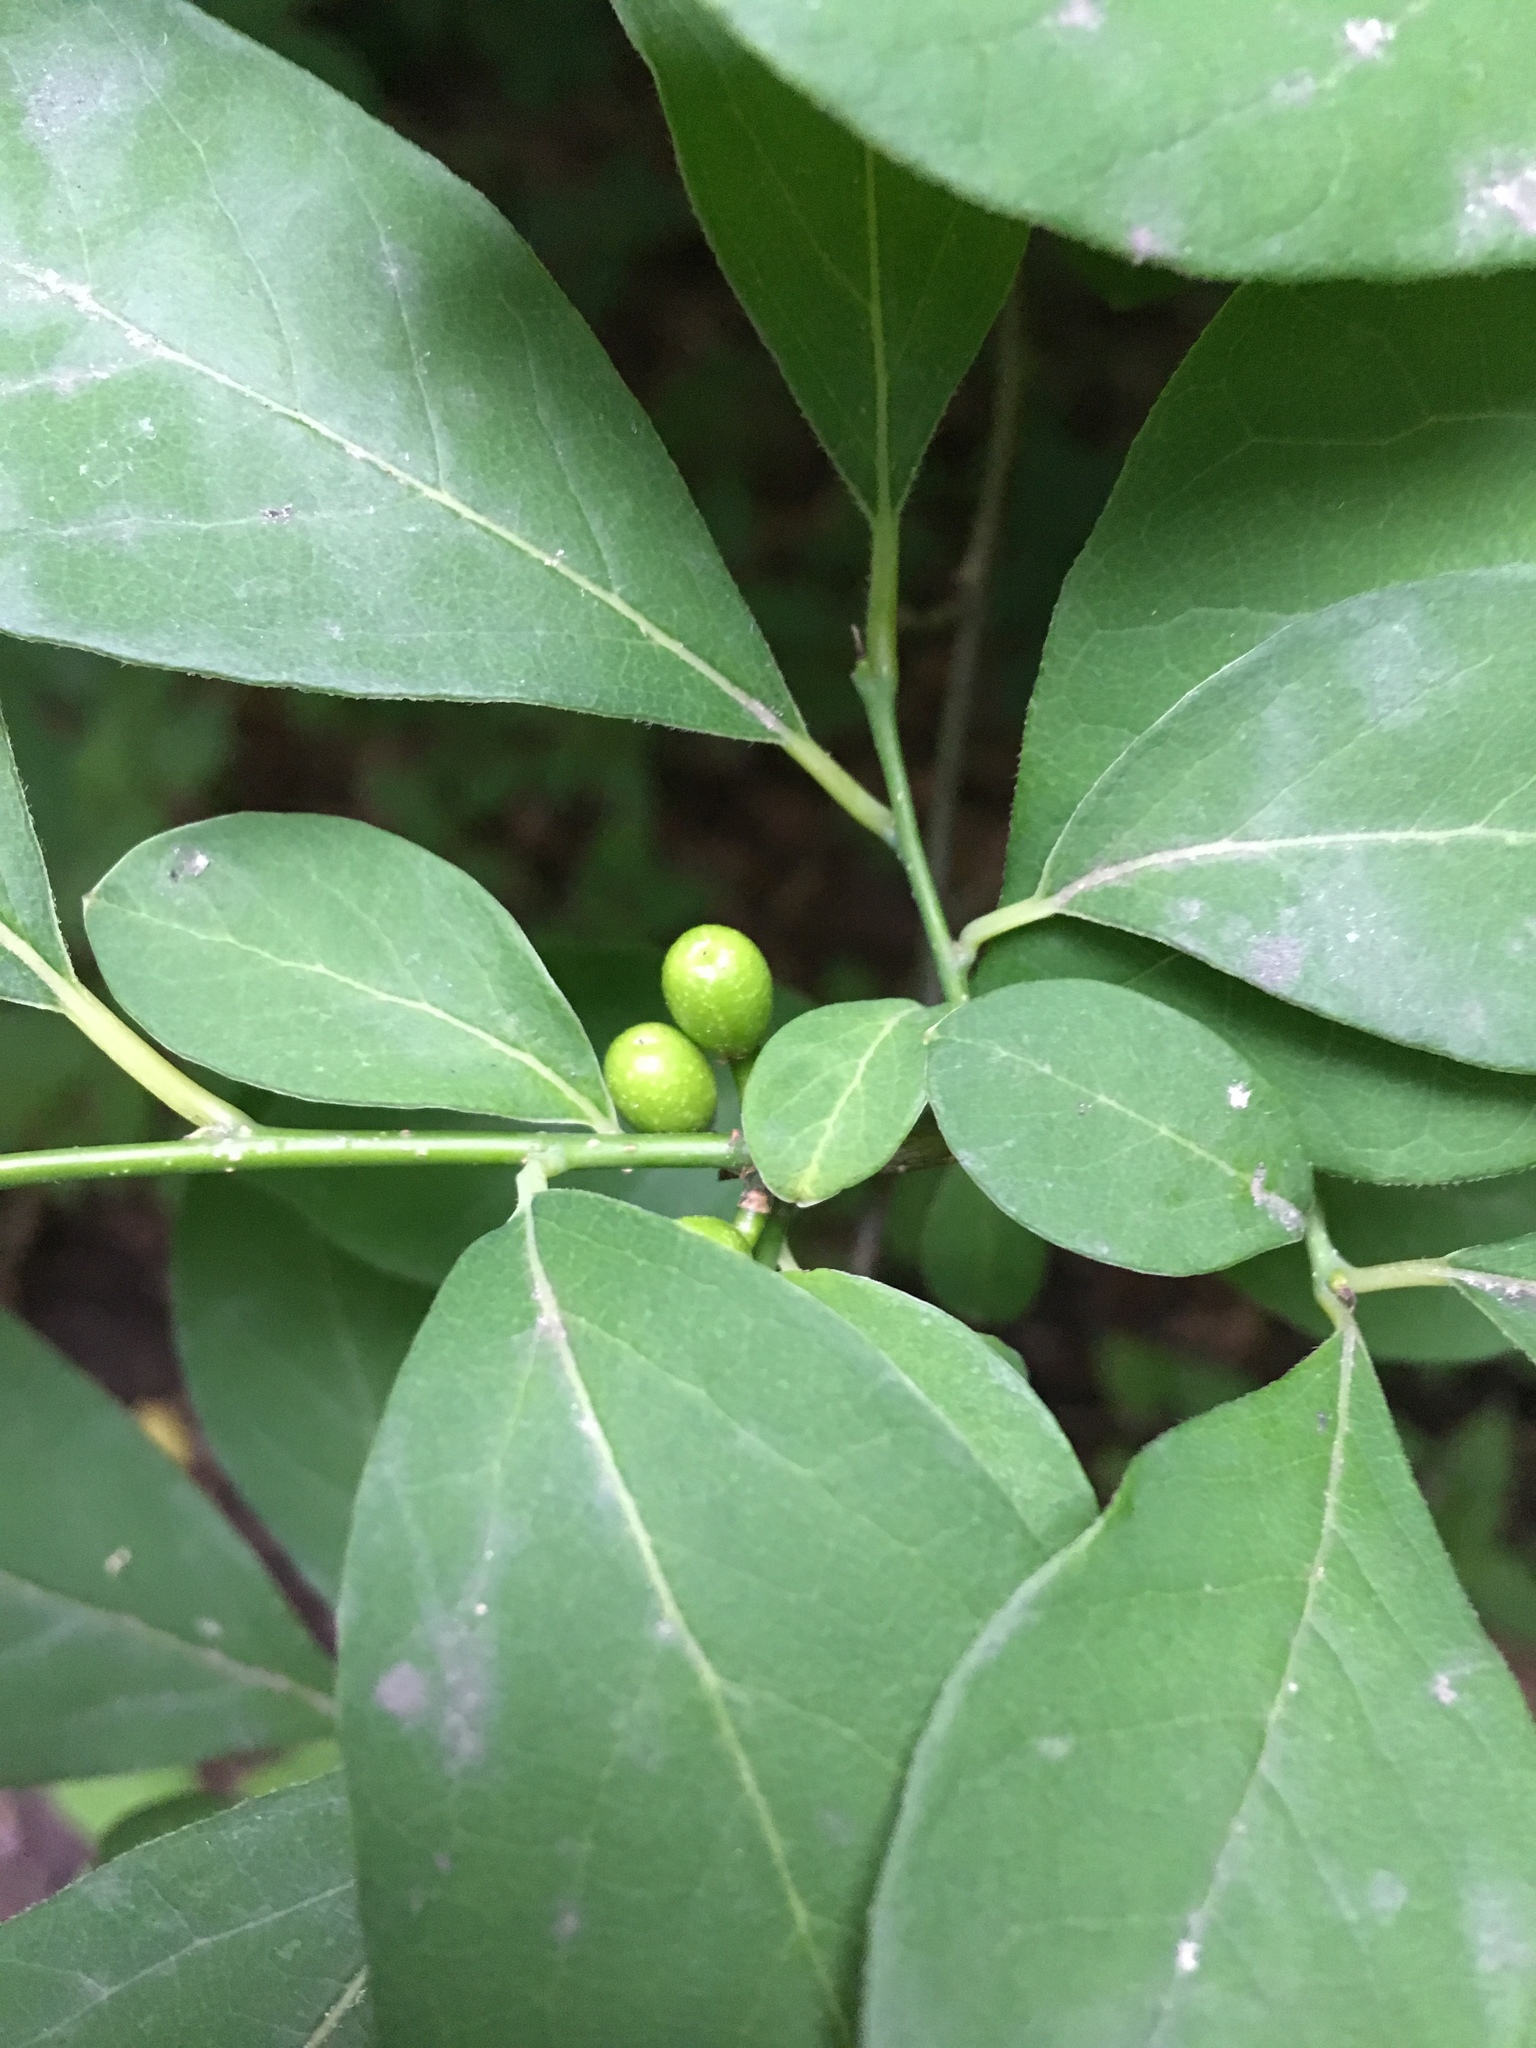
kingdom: Plantae
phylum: Tracheophyta
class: Magnoliopsida
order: Laurales
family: Lauraceae
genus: Lindera
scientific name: Lindera benzoin
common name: Spicebush
